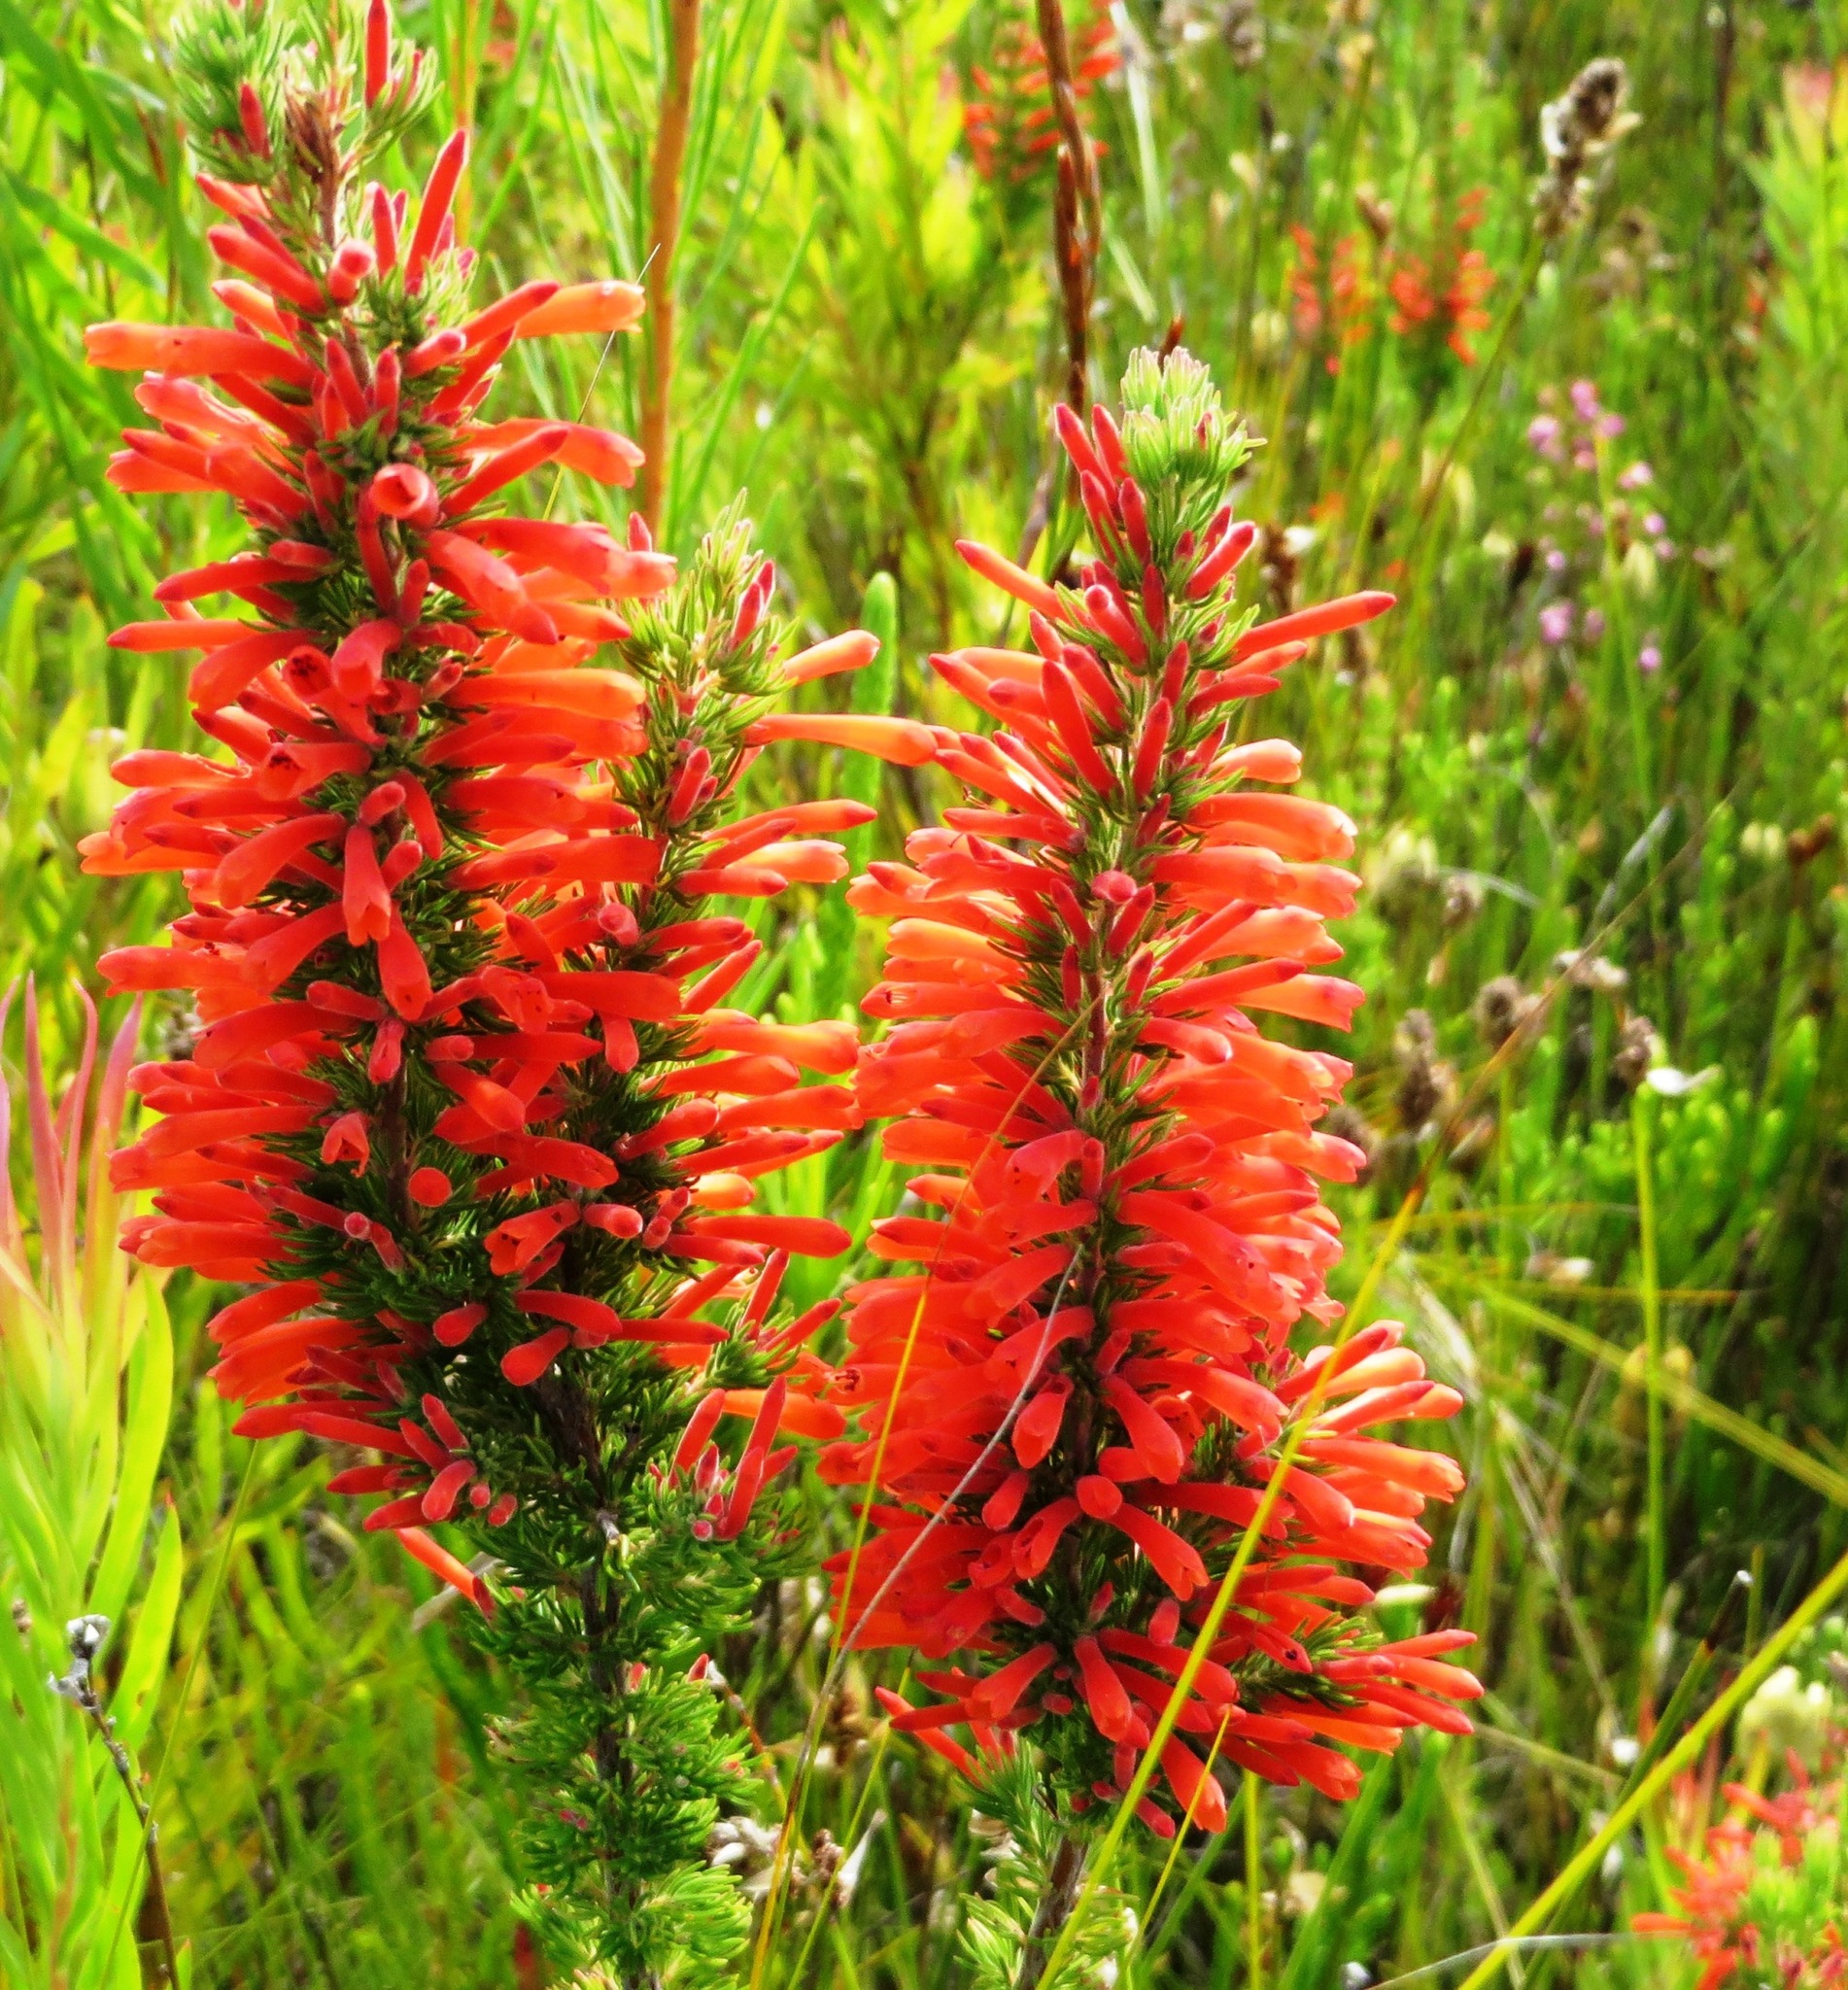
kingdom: Plantae
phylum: Tracheophyta
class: Magnoliopsida
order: Ericales
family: Ericaceae
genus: Erica
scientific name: Erica pillansii
